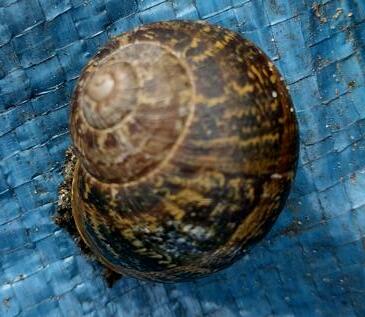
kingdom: Animalia
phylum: Mollusca
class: Gastropoda
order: Stylommatophora
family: Helicidae
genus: Cornu
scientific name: Cornu aspersum
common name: Brown garden snail
